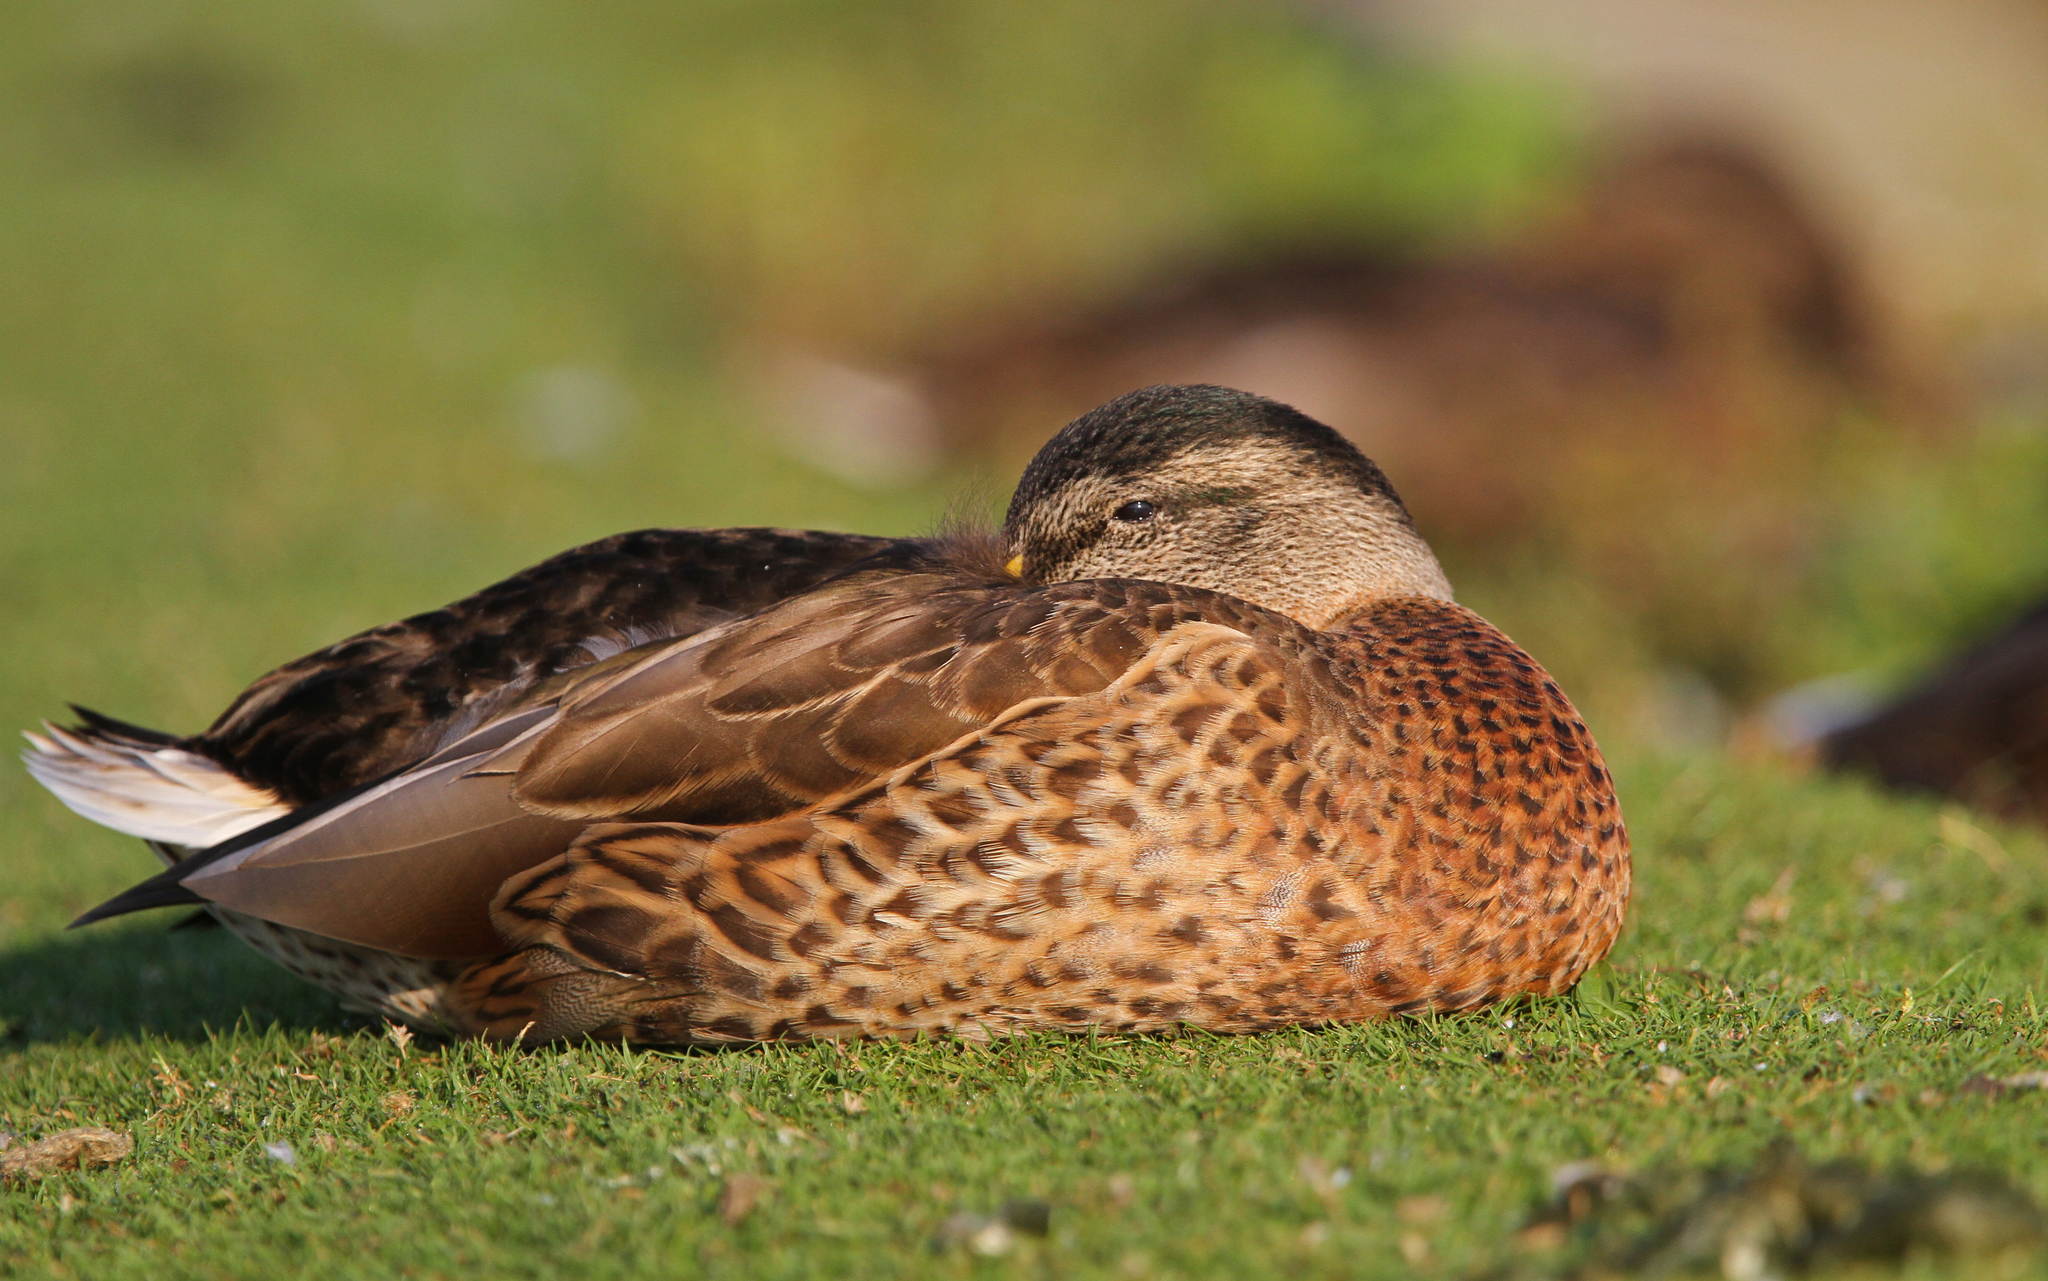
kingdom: Animalia
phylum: Chordata
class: Aves
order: Anseriformes
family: Anatidae
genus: Anas
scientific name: Anas platyrhynchos
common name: Mallard
